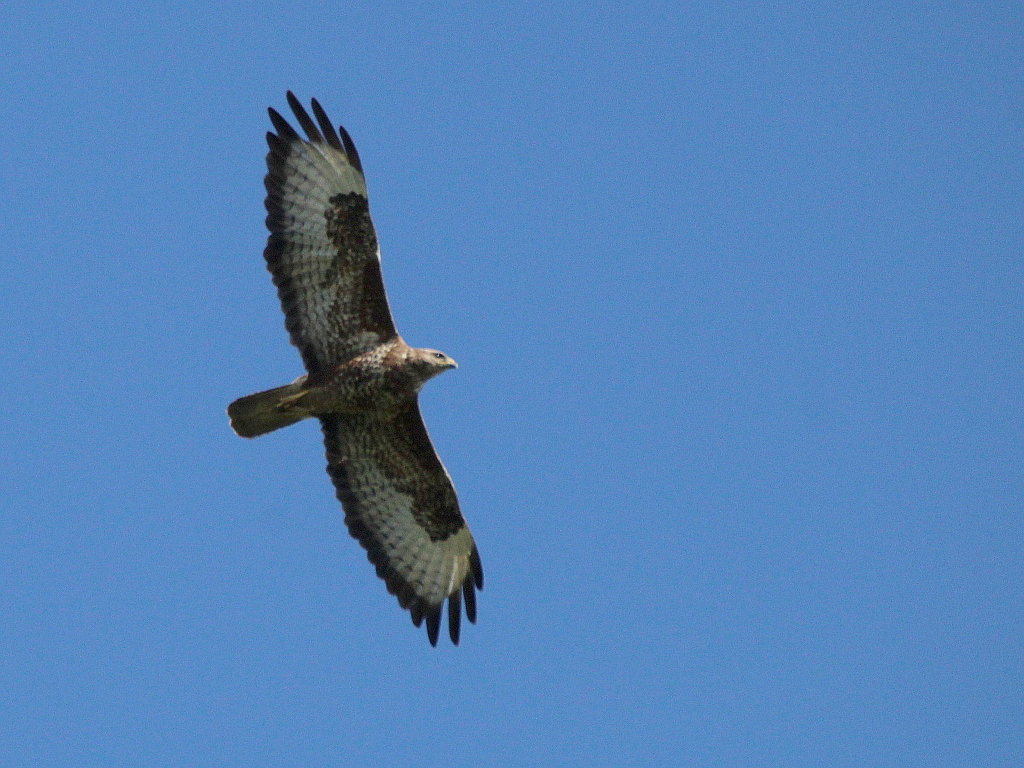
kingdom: Animalia
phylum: Chordata
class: Aves
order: Accipitriformes
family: Accipitridae
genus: Buteo
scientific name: Buteo buteo
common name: Common buzzard
